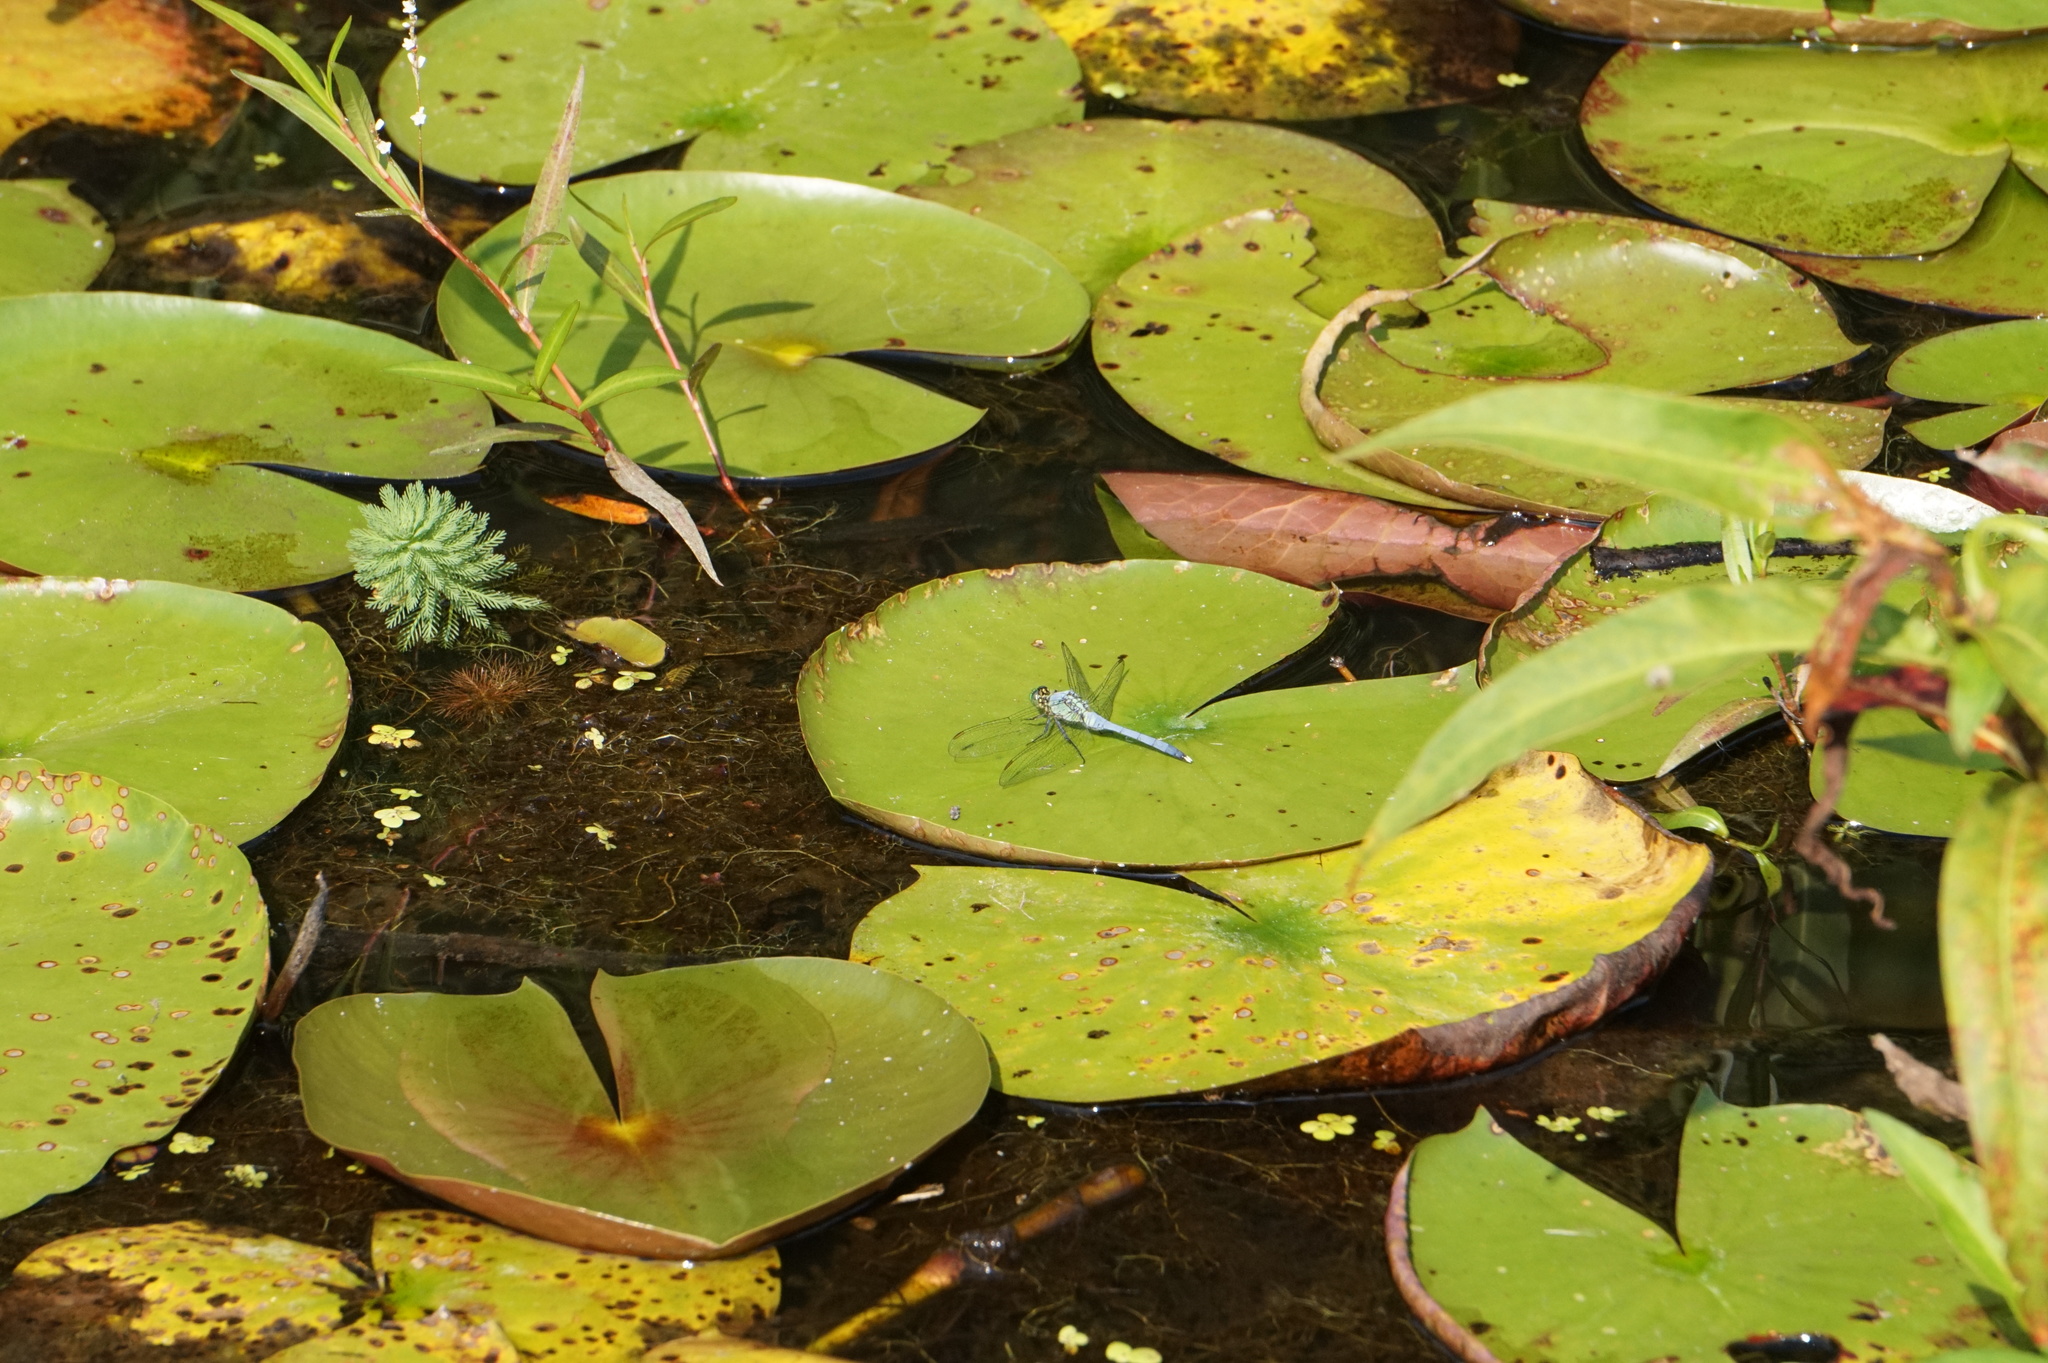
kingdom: Animalia
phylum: Arthropoda
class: Insecta
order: Odonata
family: Libellulidae
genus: Erythemis
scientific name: Erythemis simplicicollis
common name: Eastern pondhawk
